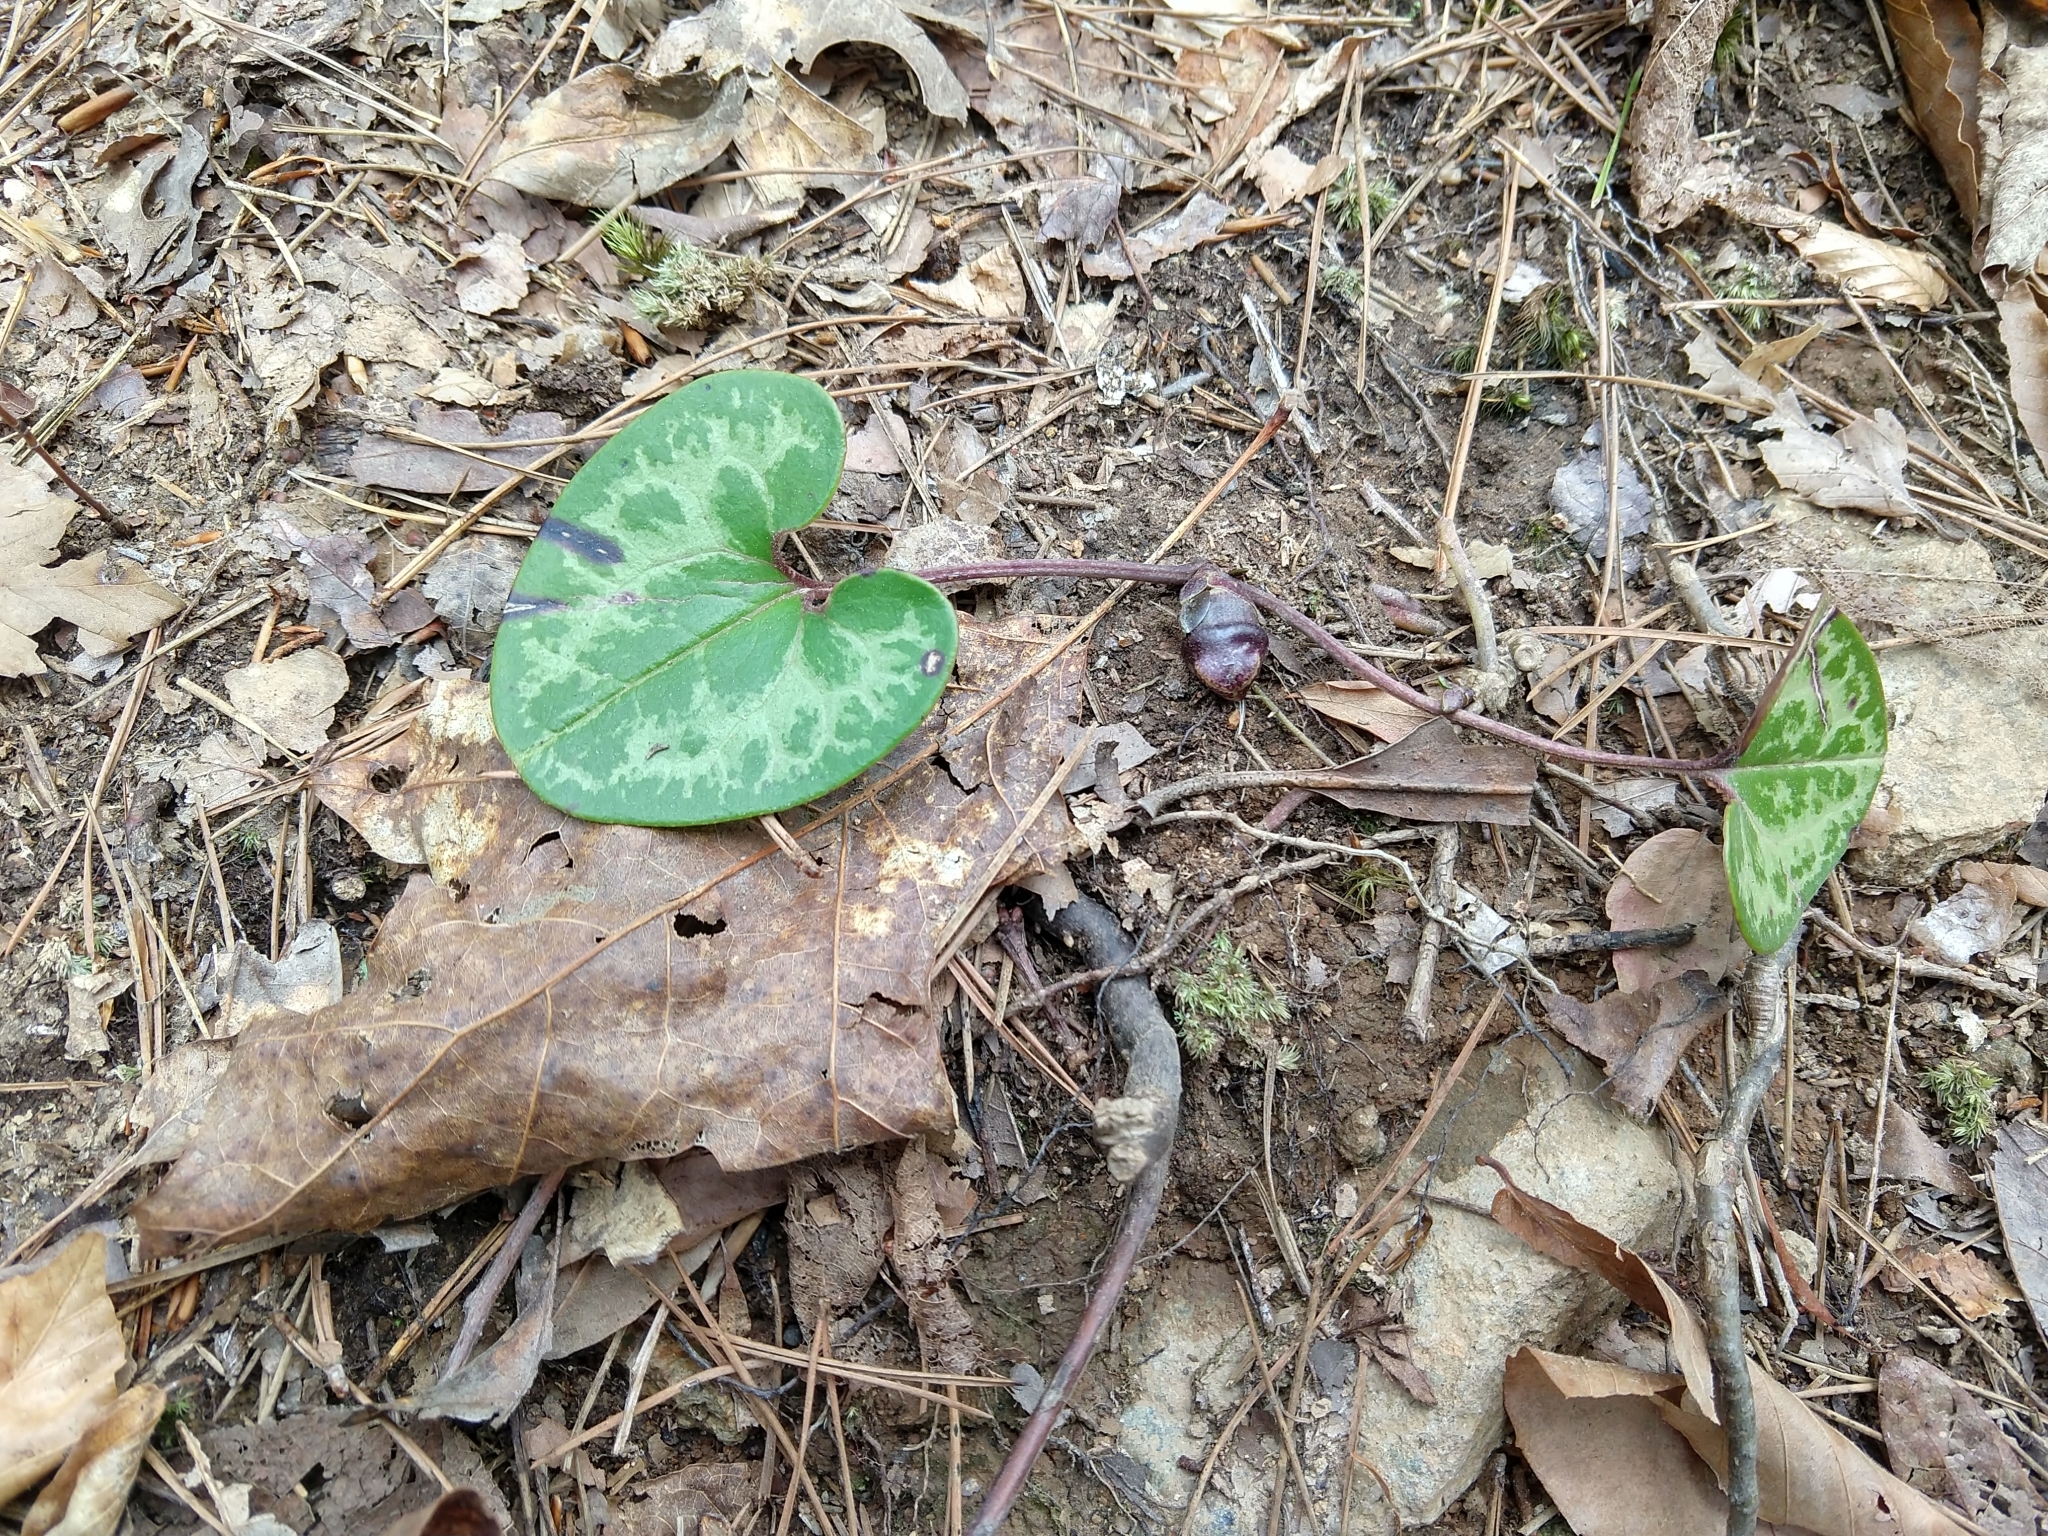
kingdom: Plantae
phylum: Tracheophyta
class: Magnoliopsida
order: Piperales
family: Aristolochiaceae
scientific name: Aristolochiaceae
